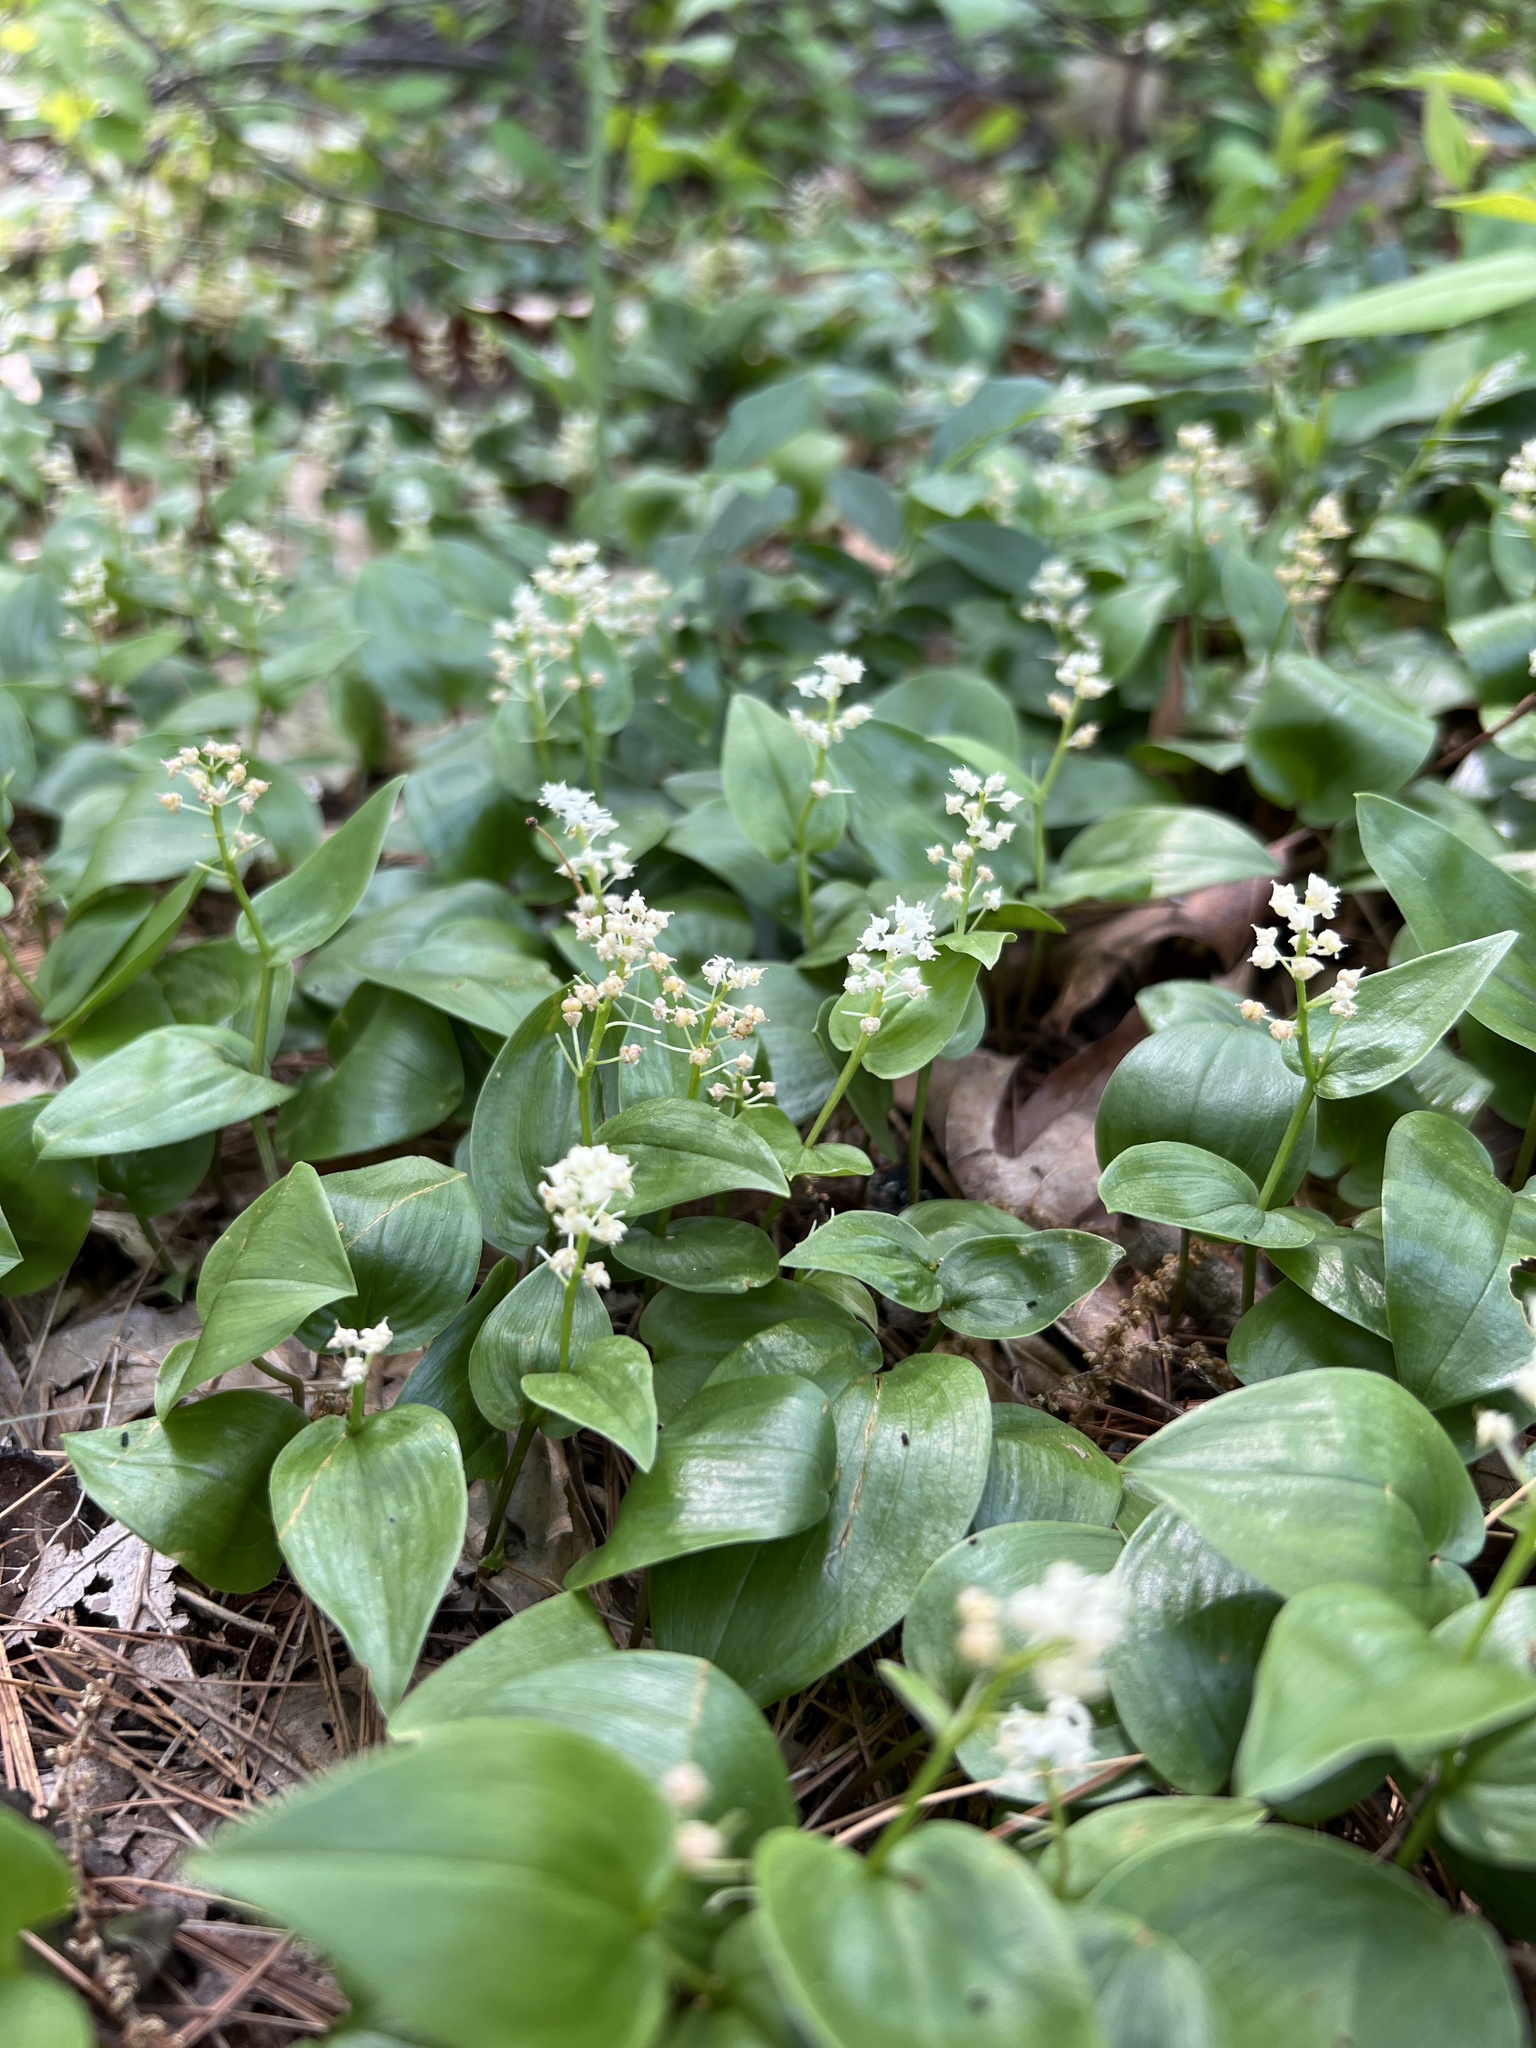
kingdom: Plantae
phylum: Tracheophyta
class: Liliopsida
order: Asparagales
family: Asparagaceae
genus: Maianthemum
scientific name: Maianthemum canadense
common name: False lily-of-the-valley
